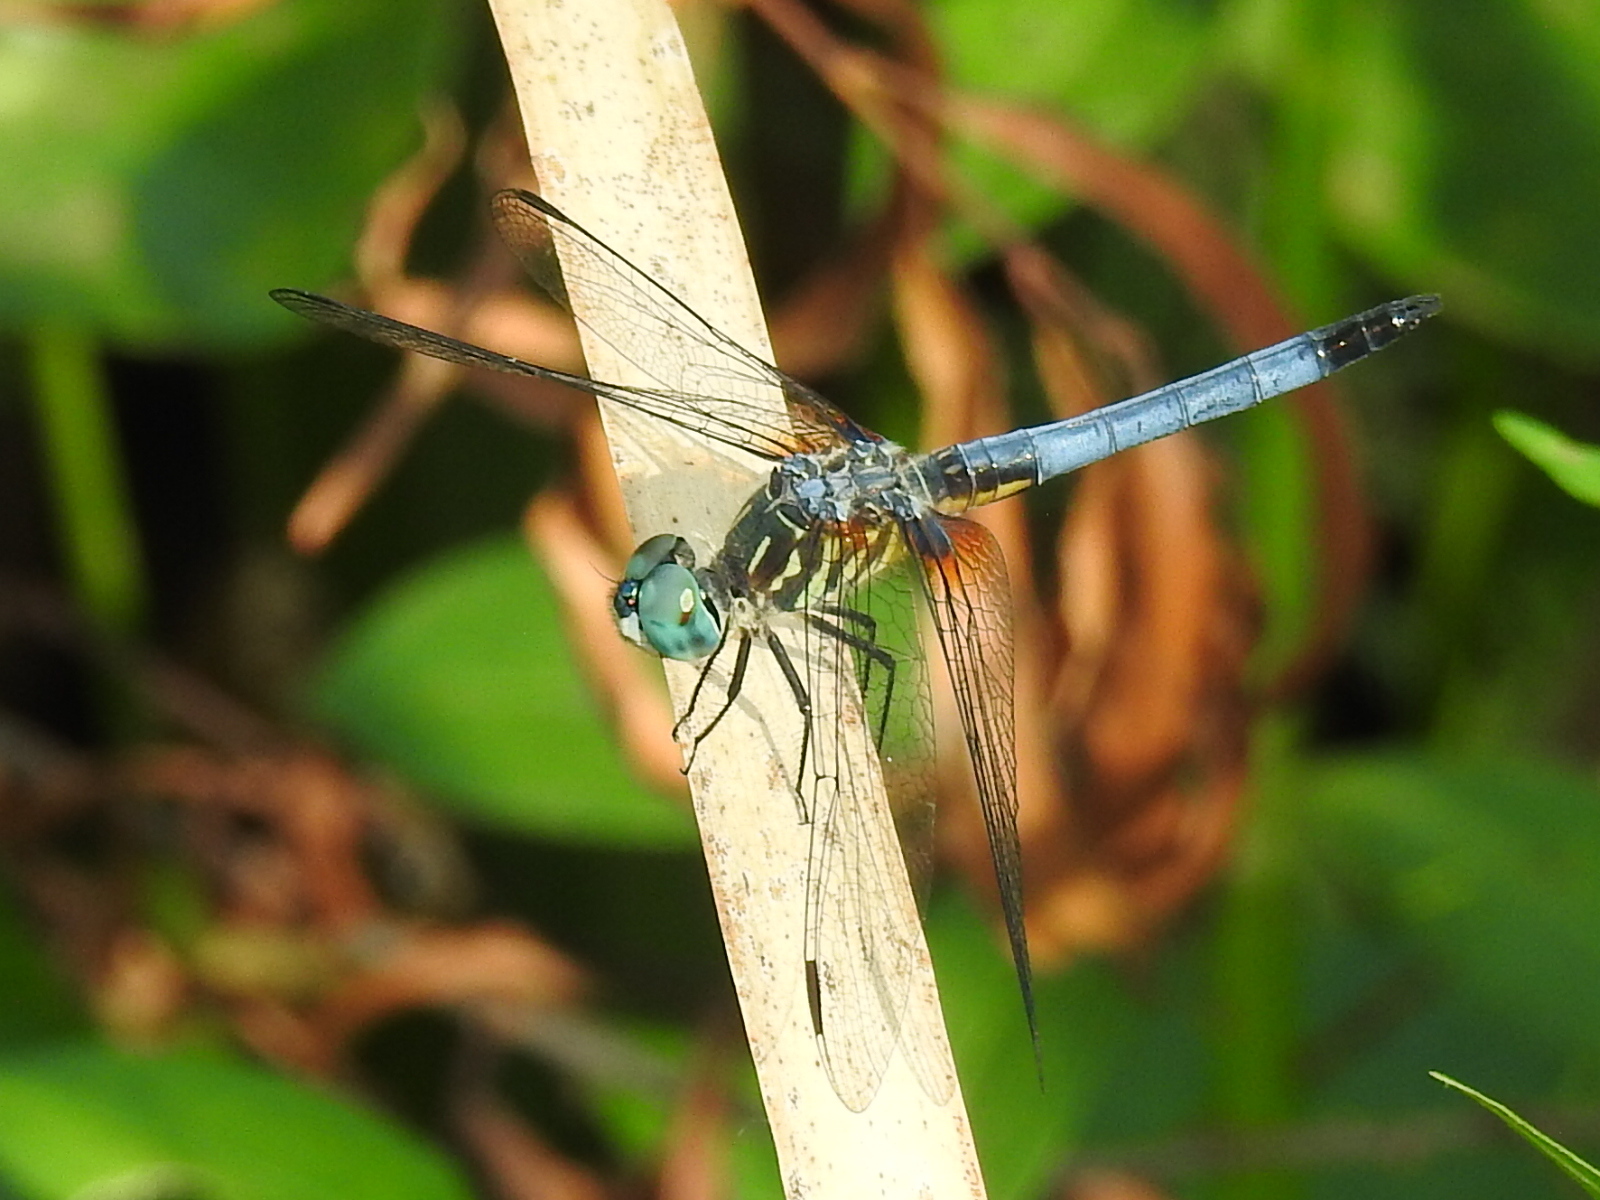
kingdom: Animalia
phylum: Arthropoda
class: Insecta
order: Odonata
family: Libellulidae
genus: Pachydiplax
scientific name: Pachydiplax longipennis
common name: Blue dasher
